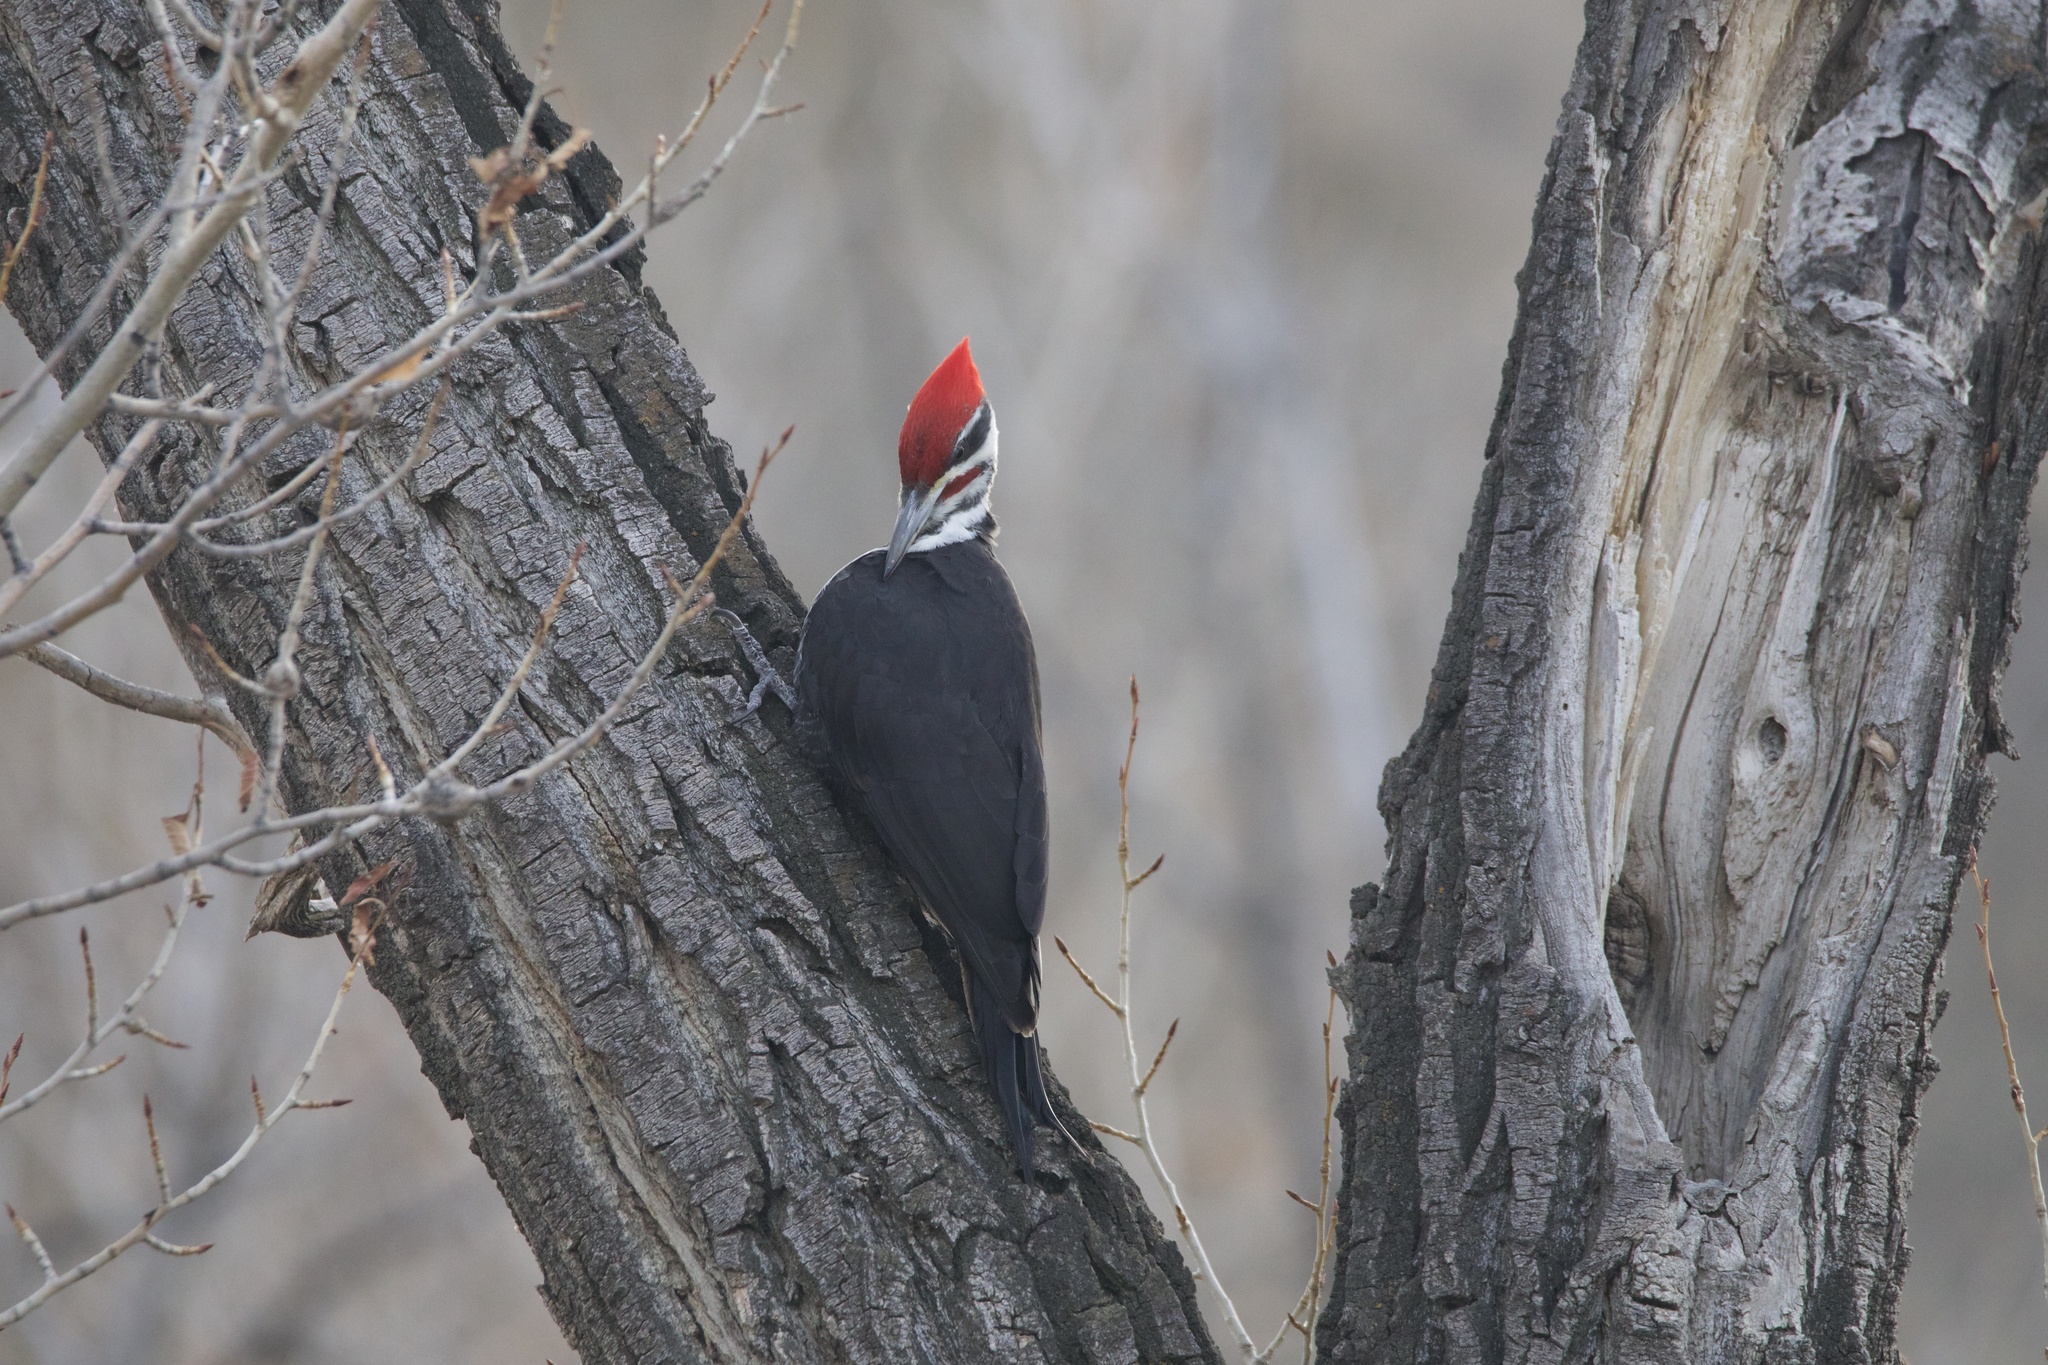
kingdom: Animalia
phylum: Chordata
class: Aves
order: Piciformes
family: Picidae
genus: Dryocopus
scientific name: Dryocopus pileatus
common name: Pileated woodpecker
